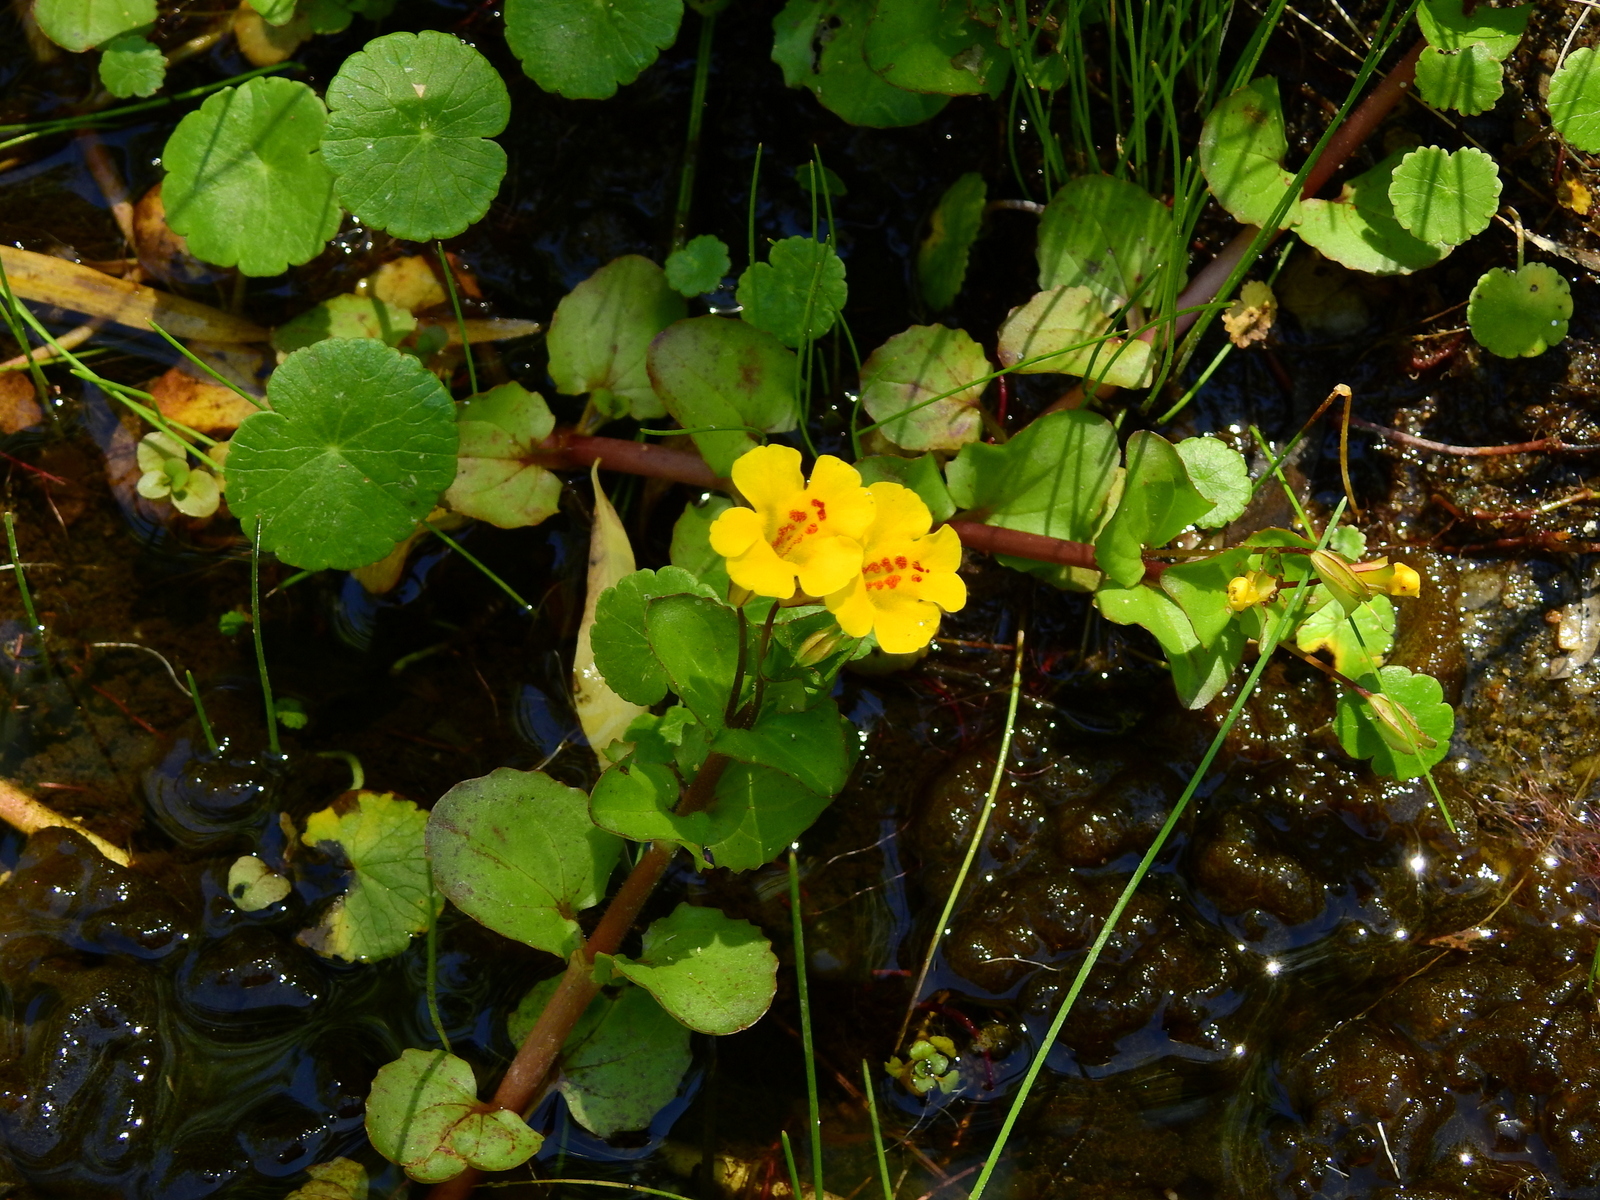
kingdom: Plantae
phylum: Tracheophyta
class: Magnoliopsida
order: Lamiales
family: Phrymaceae
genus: Erythranthe
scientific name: Erythranthe glabrata
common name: Round-leaved monkeyflower
